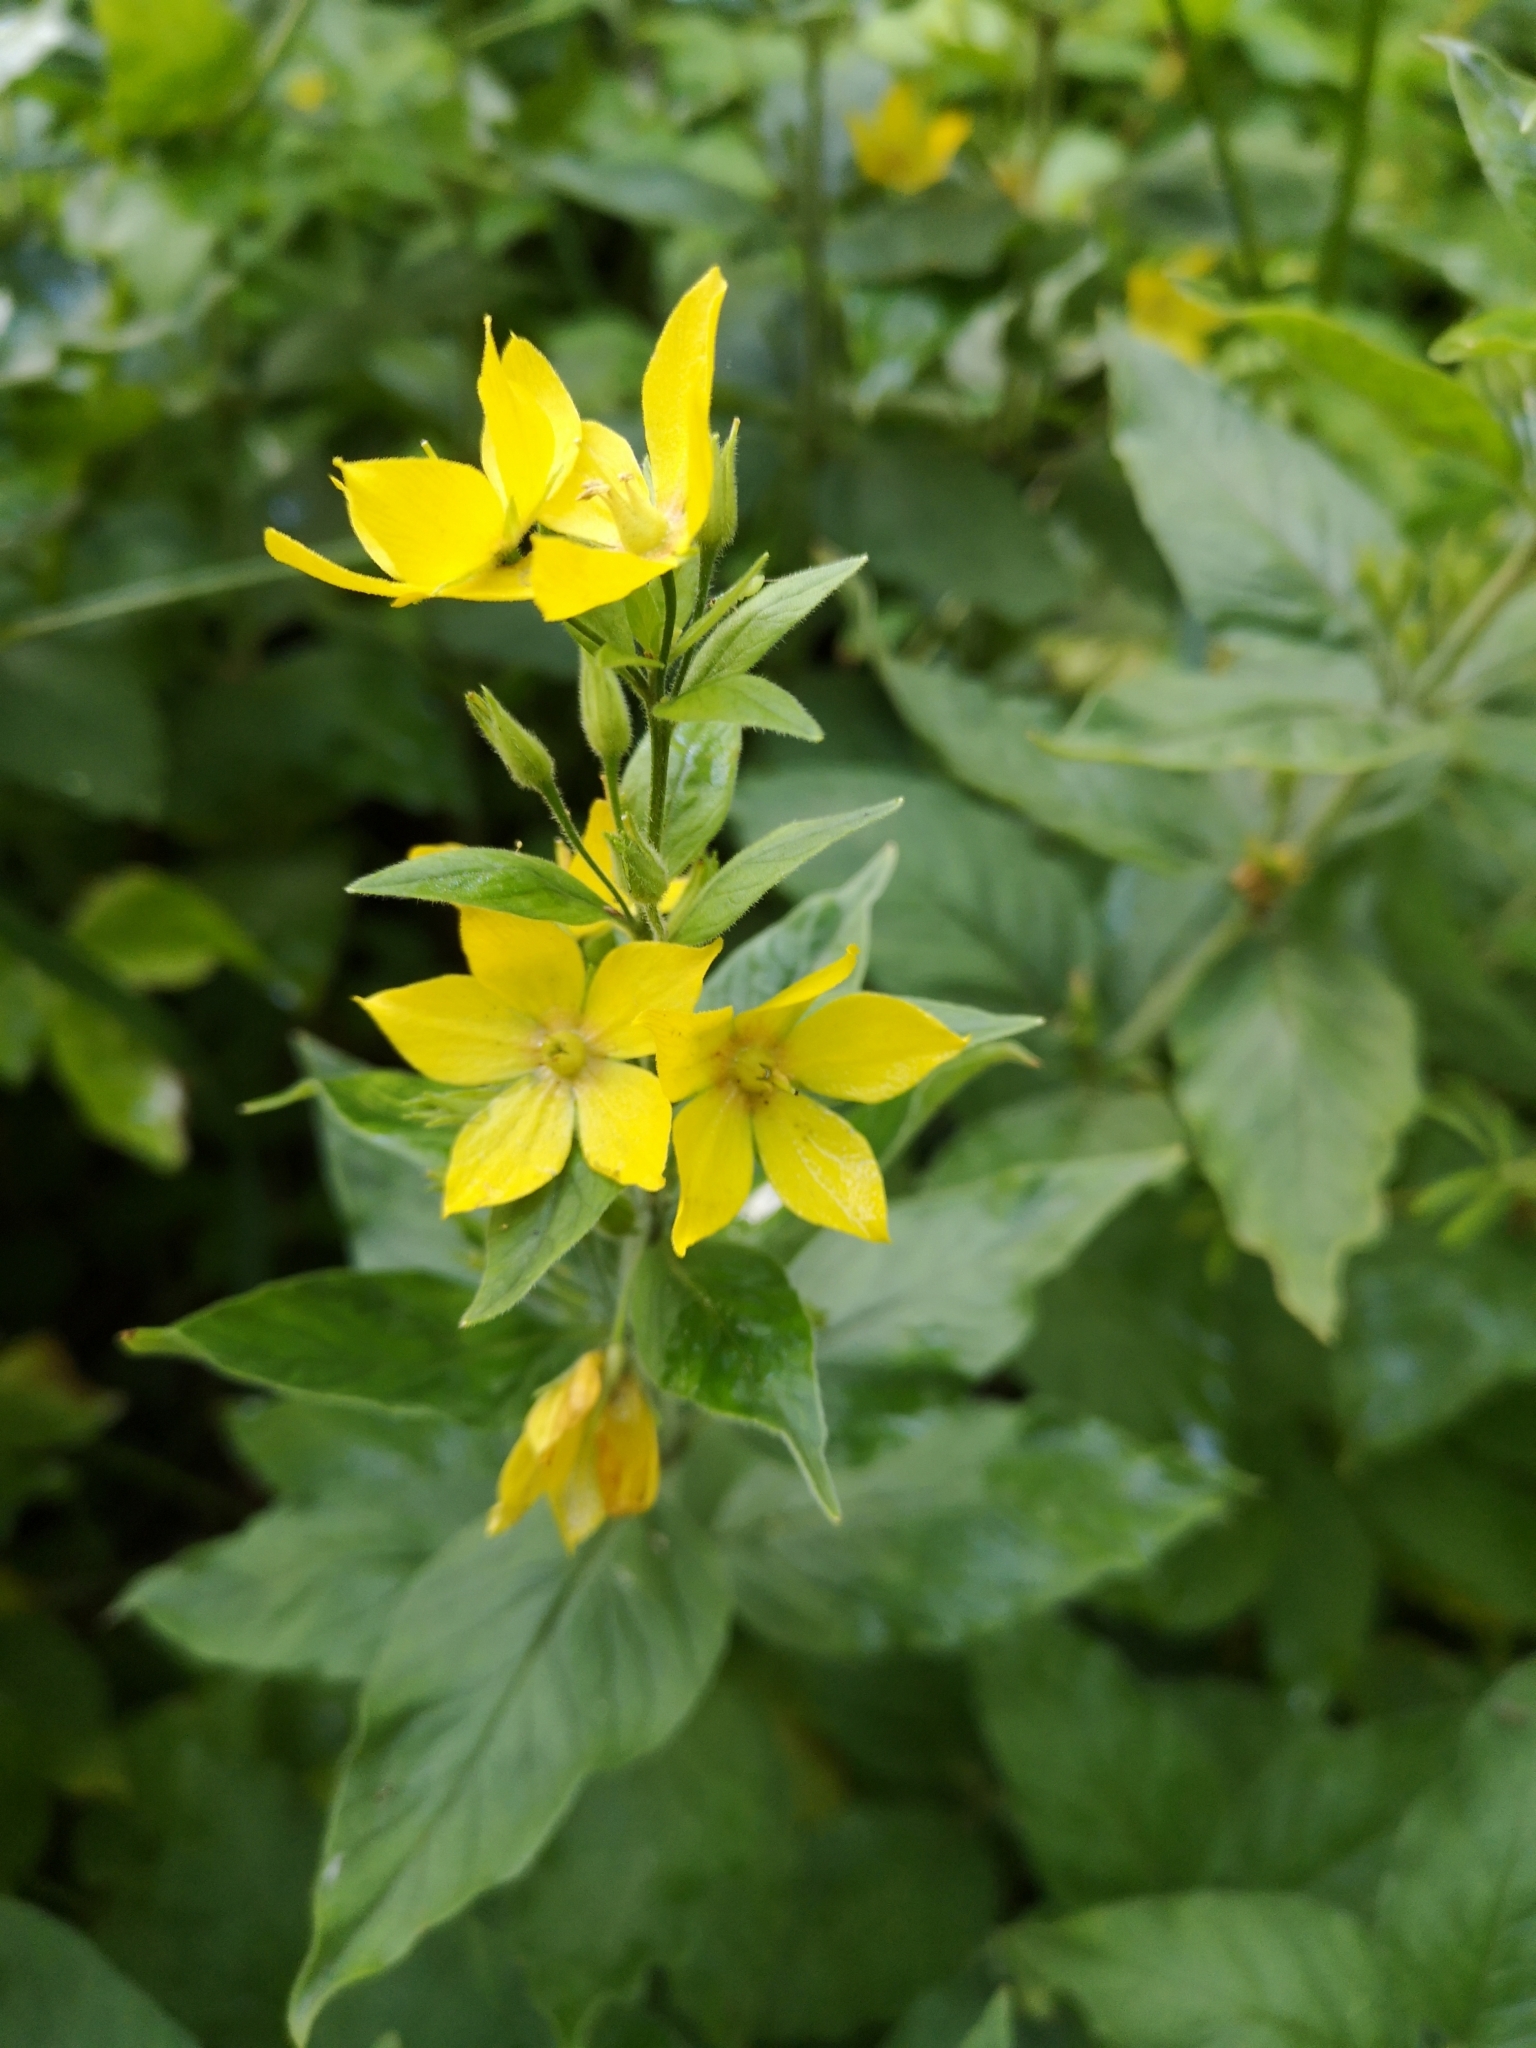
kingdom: Plantae
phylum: Tracheophyta
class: Magnoliopsida
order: Ericales
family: Primulaceae
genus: Lysimachia
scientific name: Lysimachia punctata
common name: Dotted loosestrife
